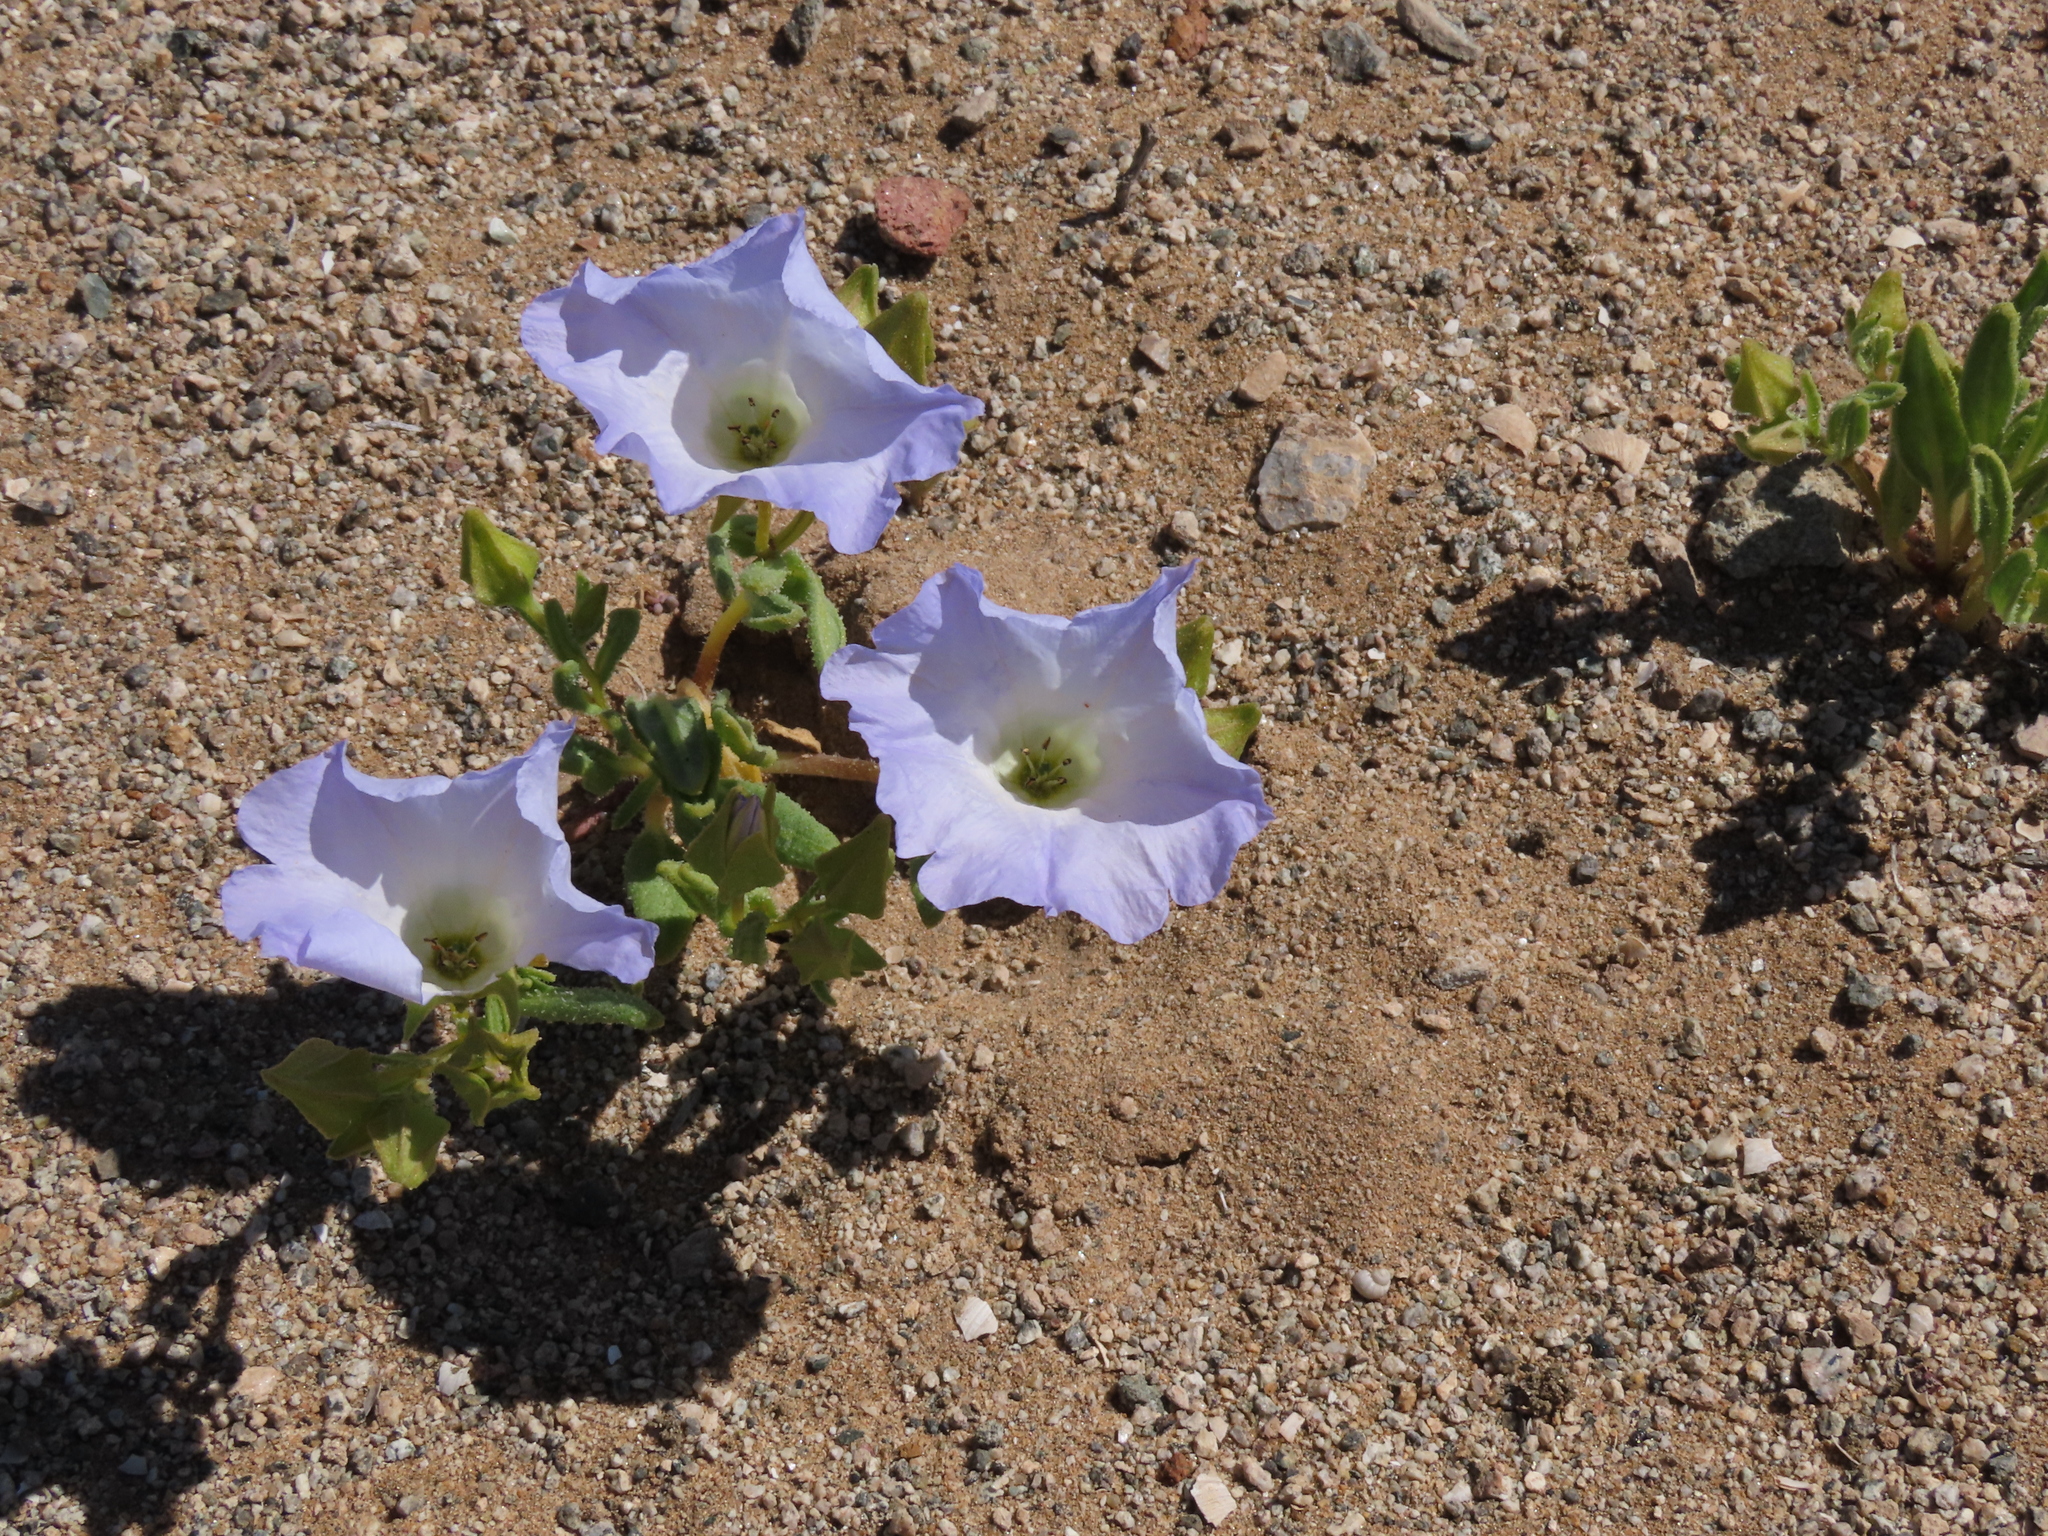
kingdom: Plantae
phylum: Tracheophyta
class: Magnoliopsida
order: Solanales
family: Solanaceae
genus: Nolana
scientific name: Nolana baccata
